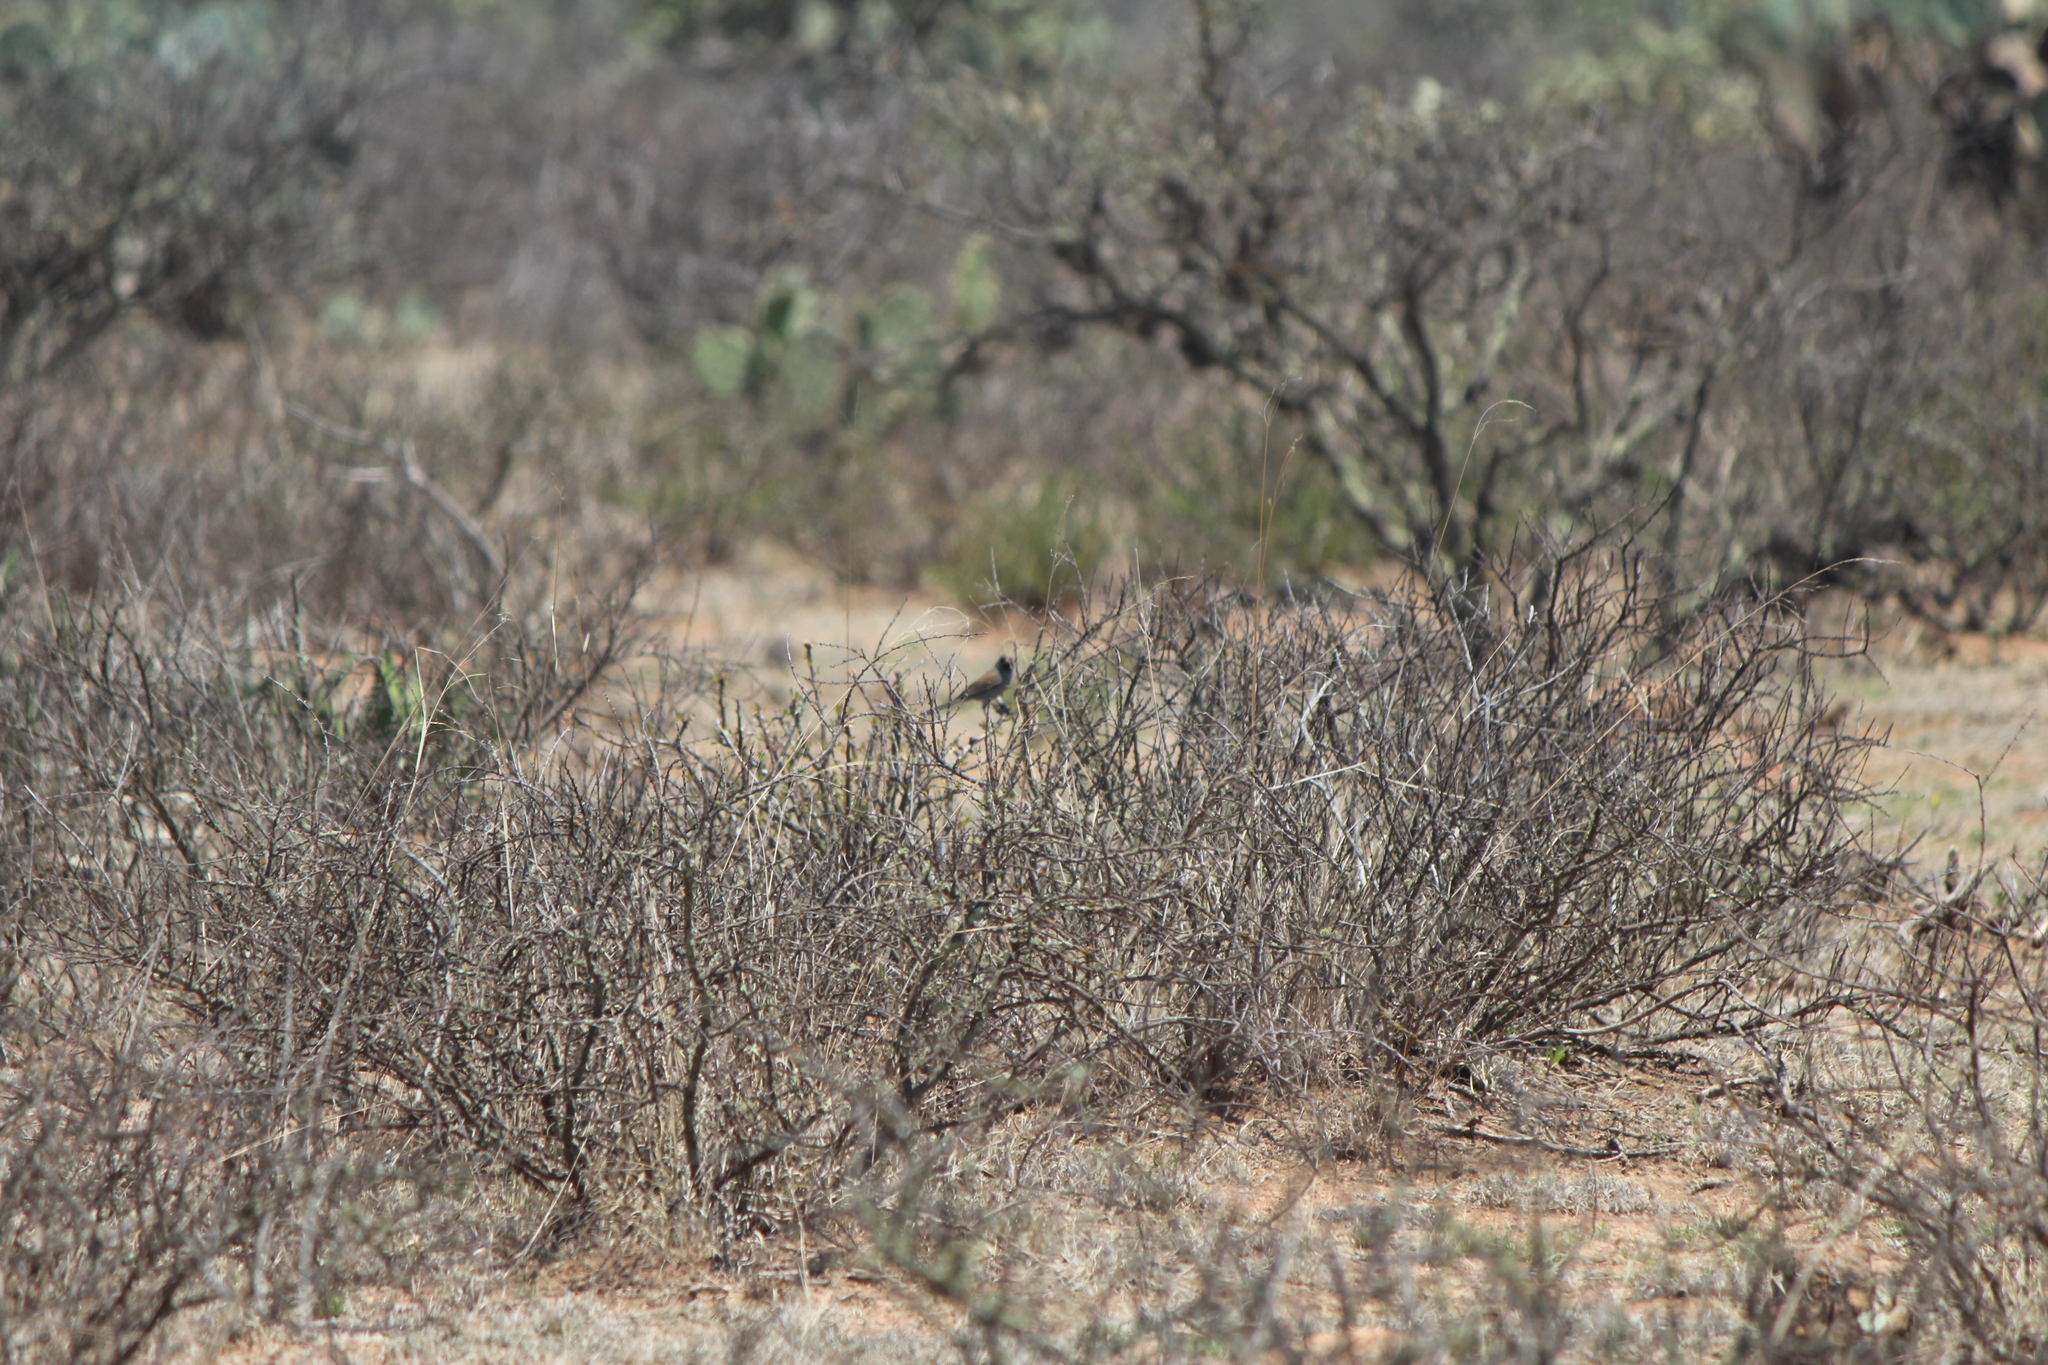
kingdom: Animalia
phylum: Chordata
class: Aves
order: Passeriformes
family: Passerellidae
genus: Spizella
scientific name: Spizella atrogularis
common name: Black-chinned sparrow
